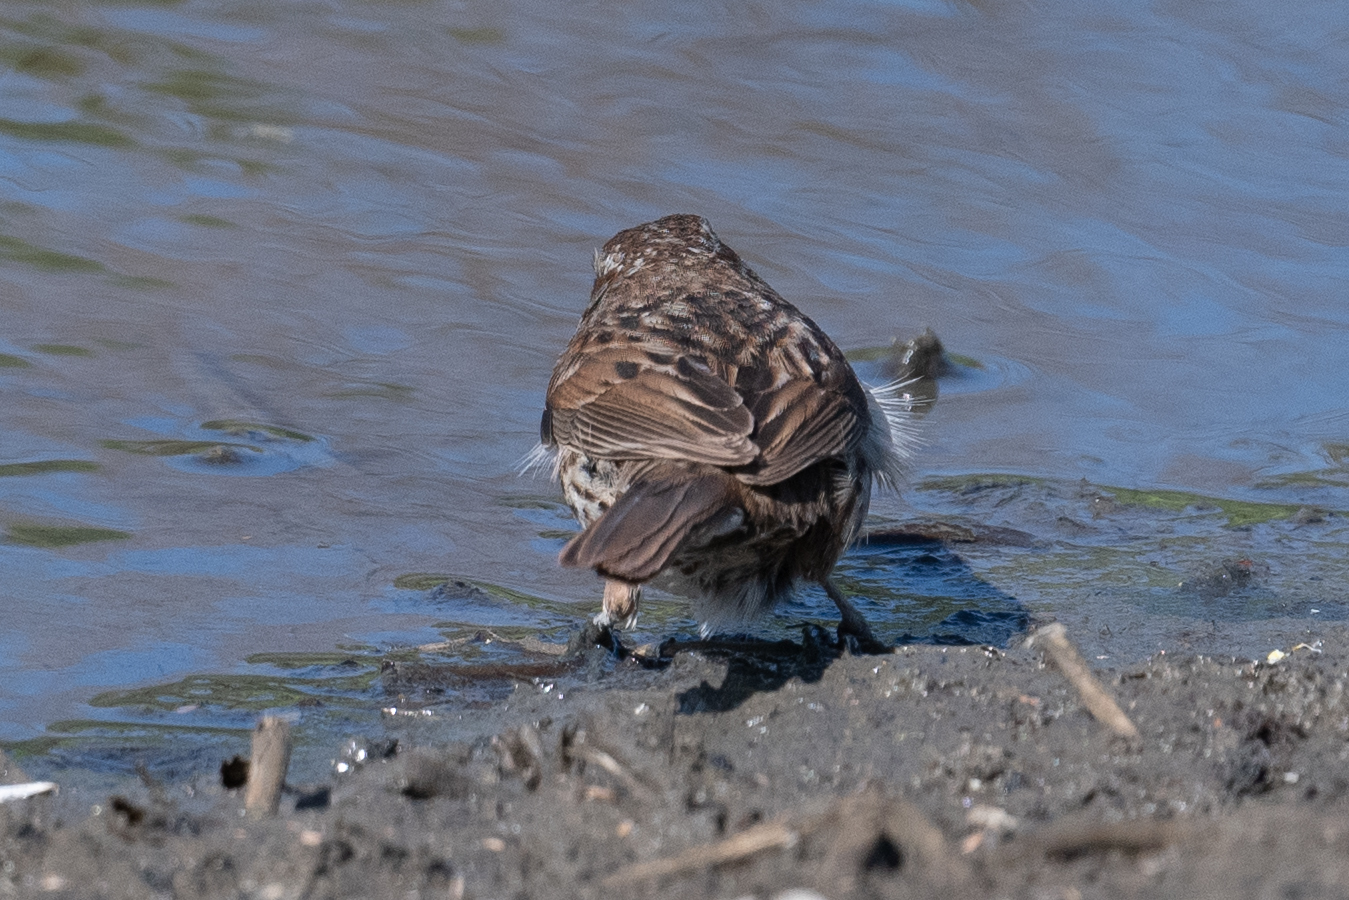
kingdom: Animalia
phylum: Chordata
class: Aves
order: Passeriformes
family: Passerellidae
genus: Melospiza
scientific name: Melospiza melodia
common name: Song sparrow
